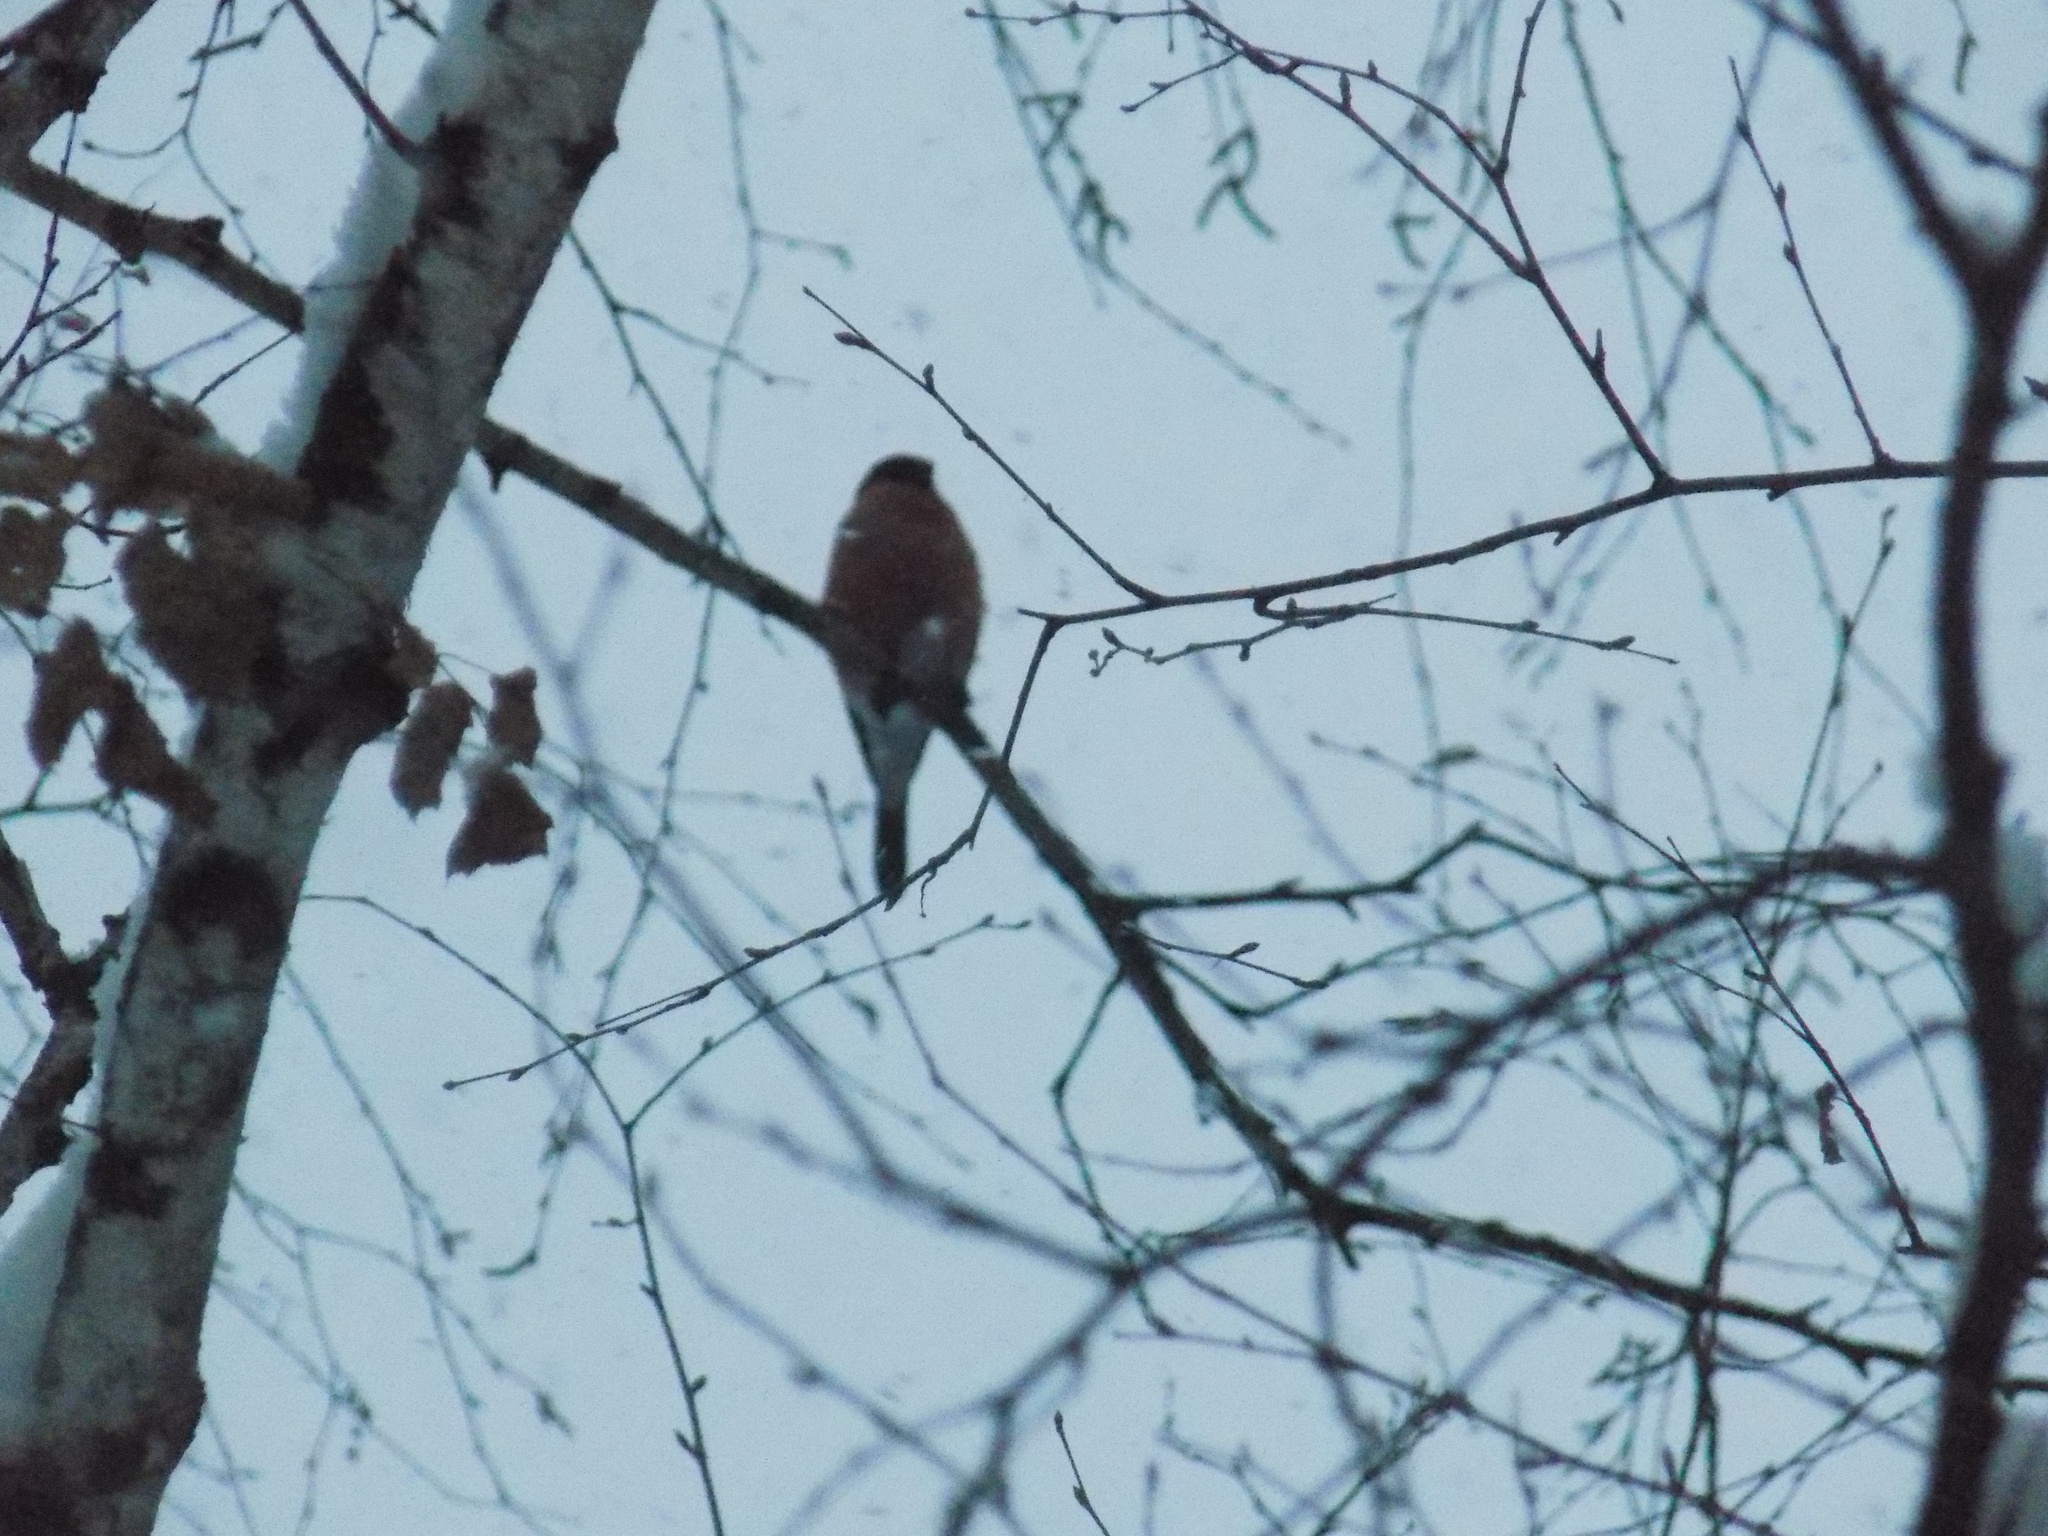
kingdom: Animalia
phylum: Chordata
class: Aves
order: Passeriformes
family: Fringillidae
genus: Pyrrhula
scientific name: Pyrrhula pyrrhula
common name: Eurasian bullfinch
